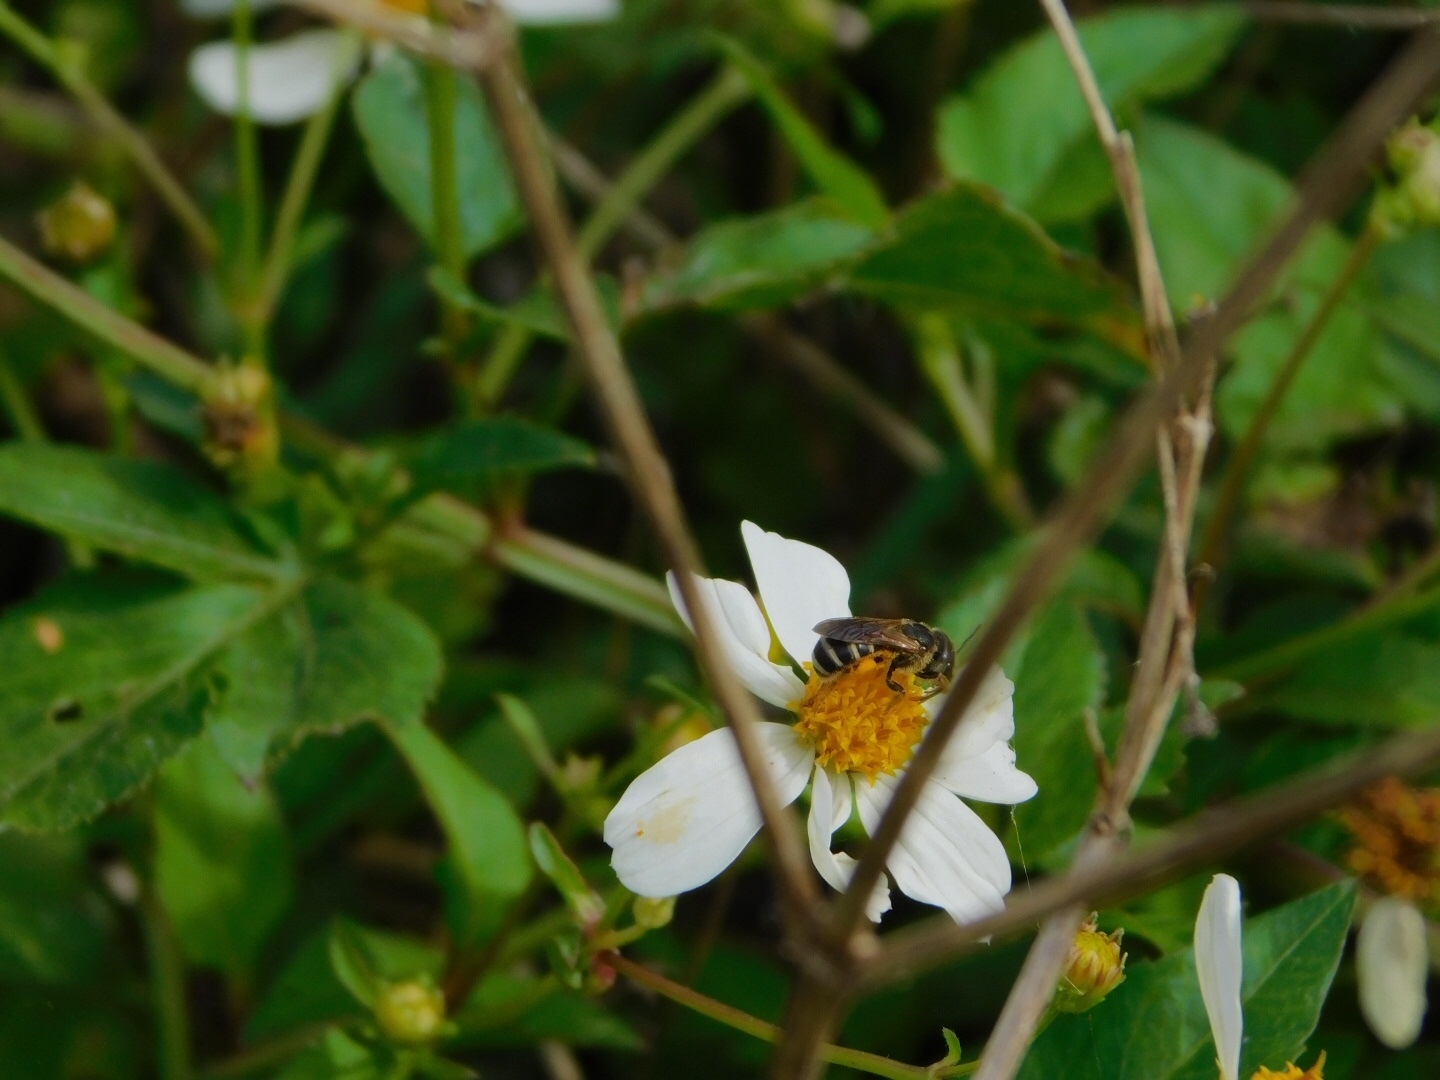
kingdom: Animalia
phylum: Arthropoda
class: Insecta
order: Hymenoptera
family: Halictidae
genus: Halictus
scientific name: Halictus poeyi
